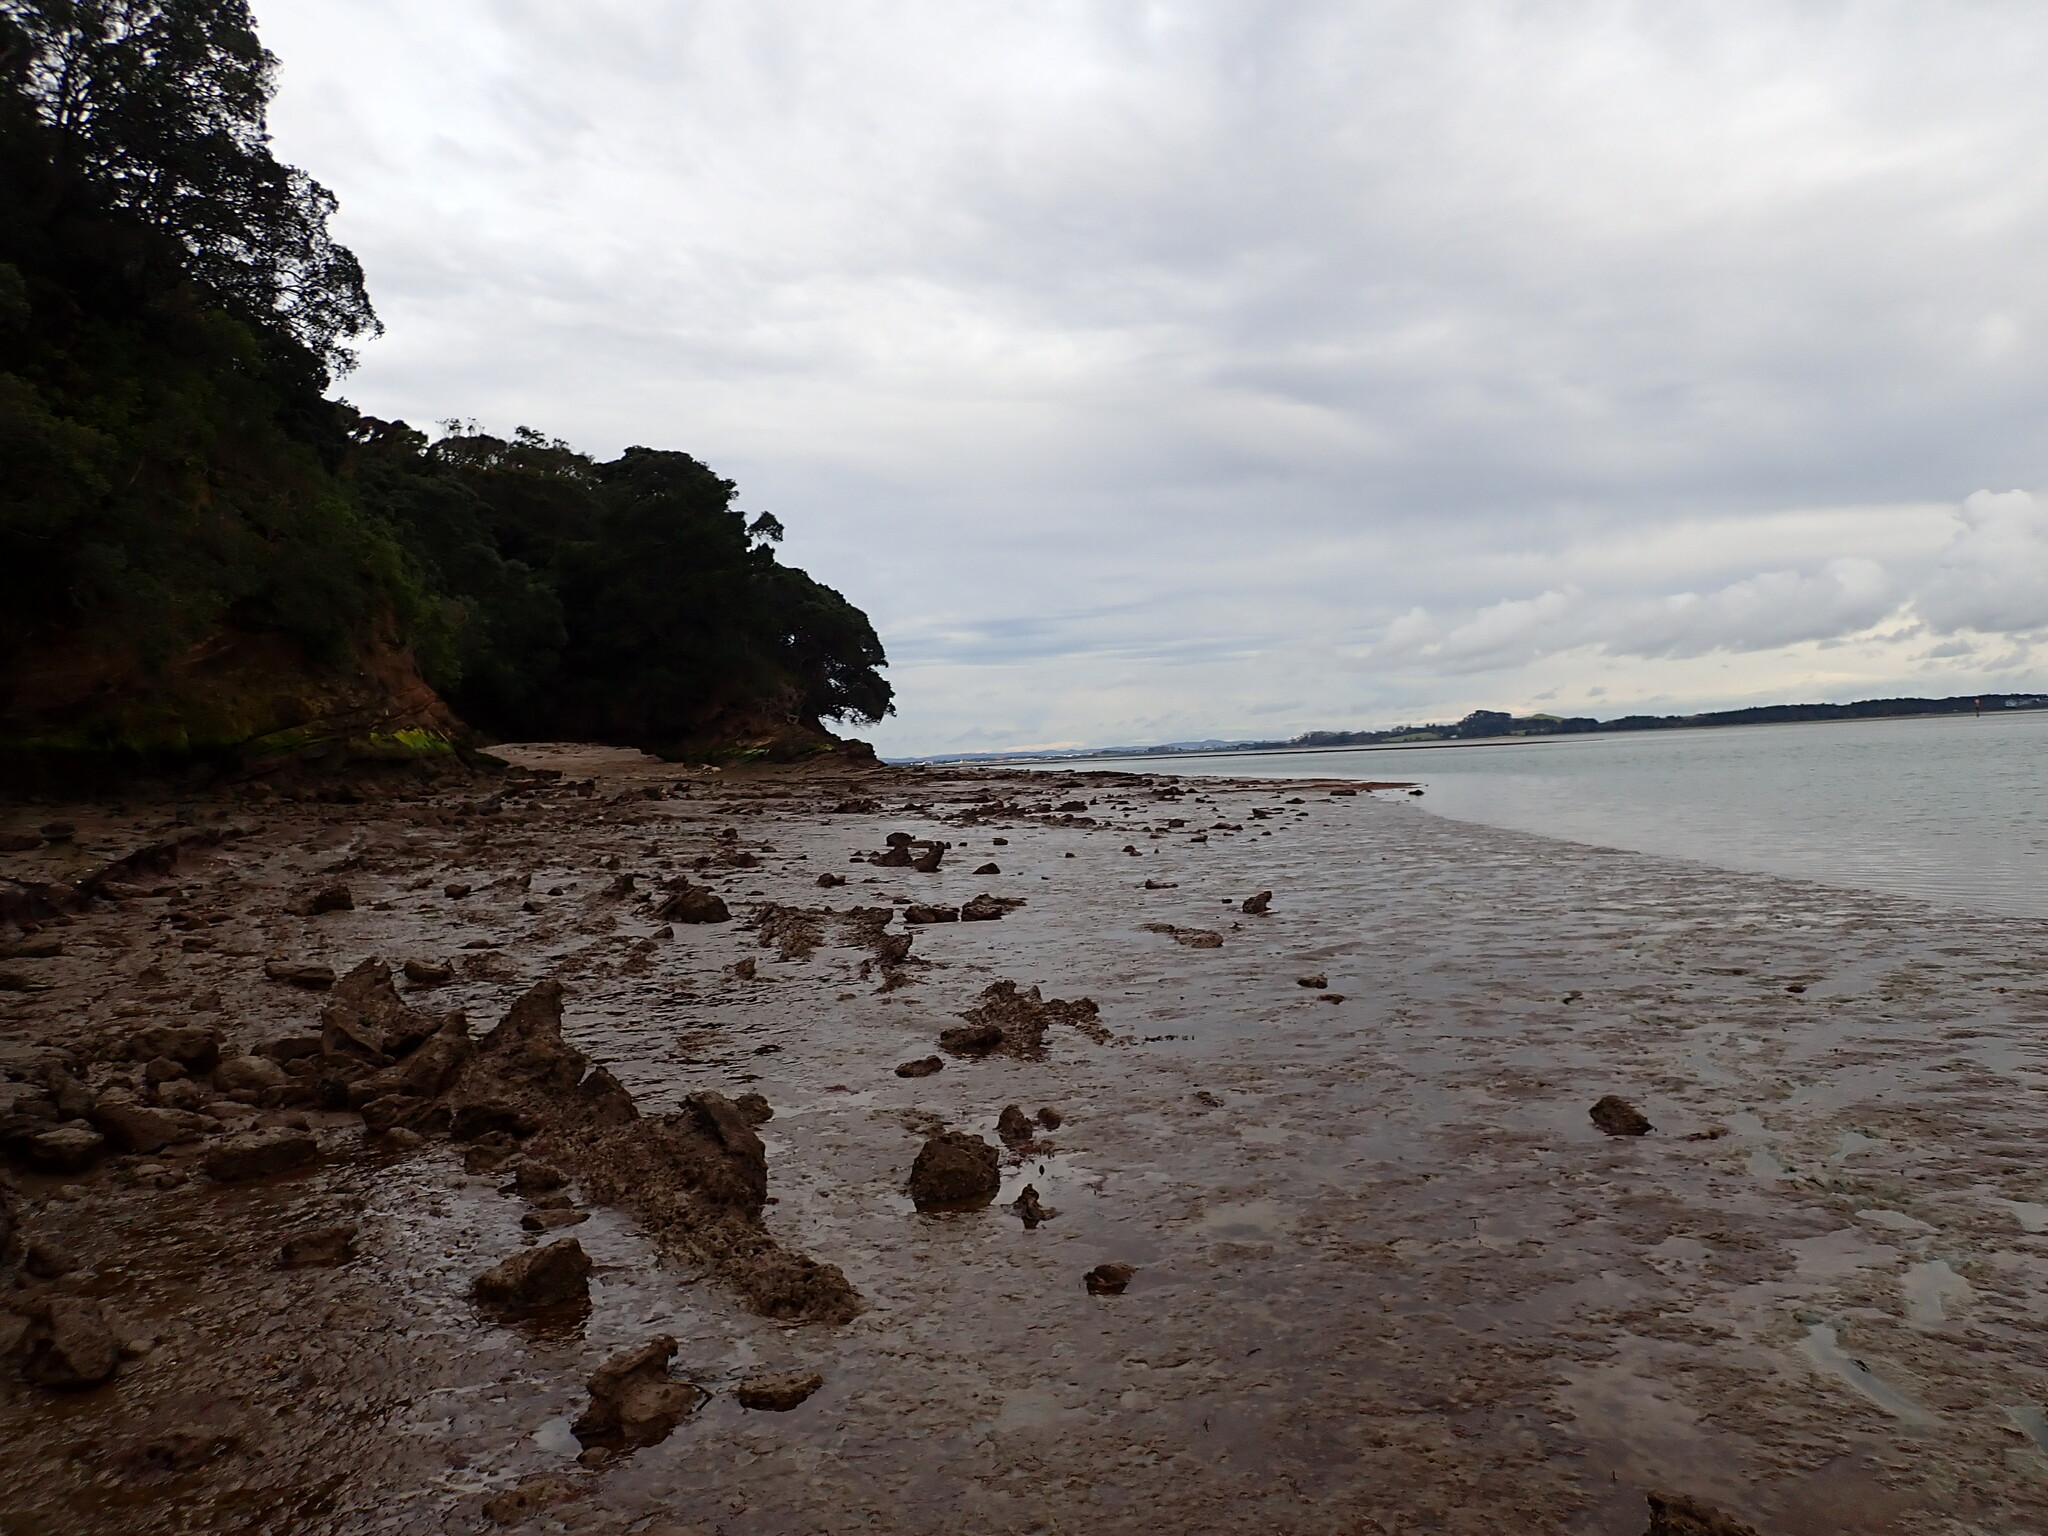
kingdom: Animalia
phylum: Mollusca
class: Bivalvia
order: Cardiida
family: Semelidae
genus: Theora
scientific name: Theora lubrica
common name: Asian semele
